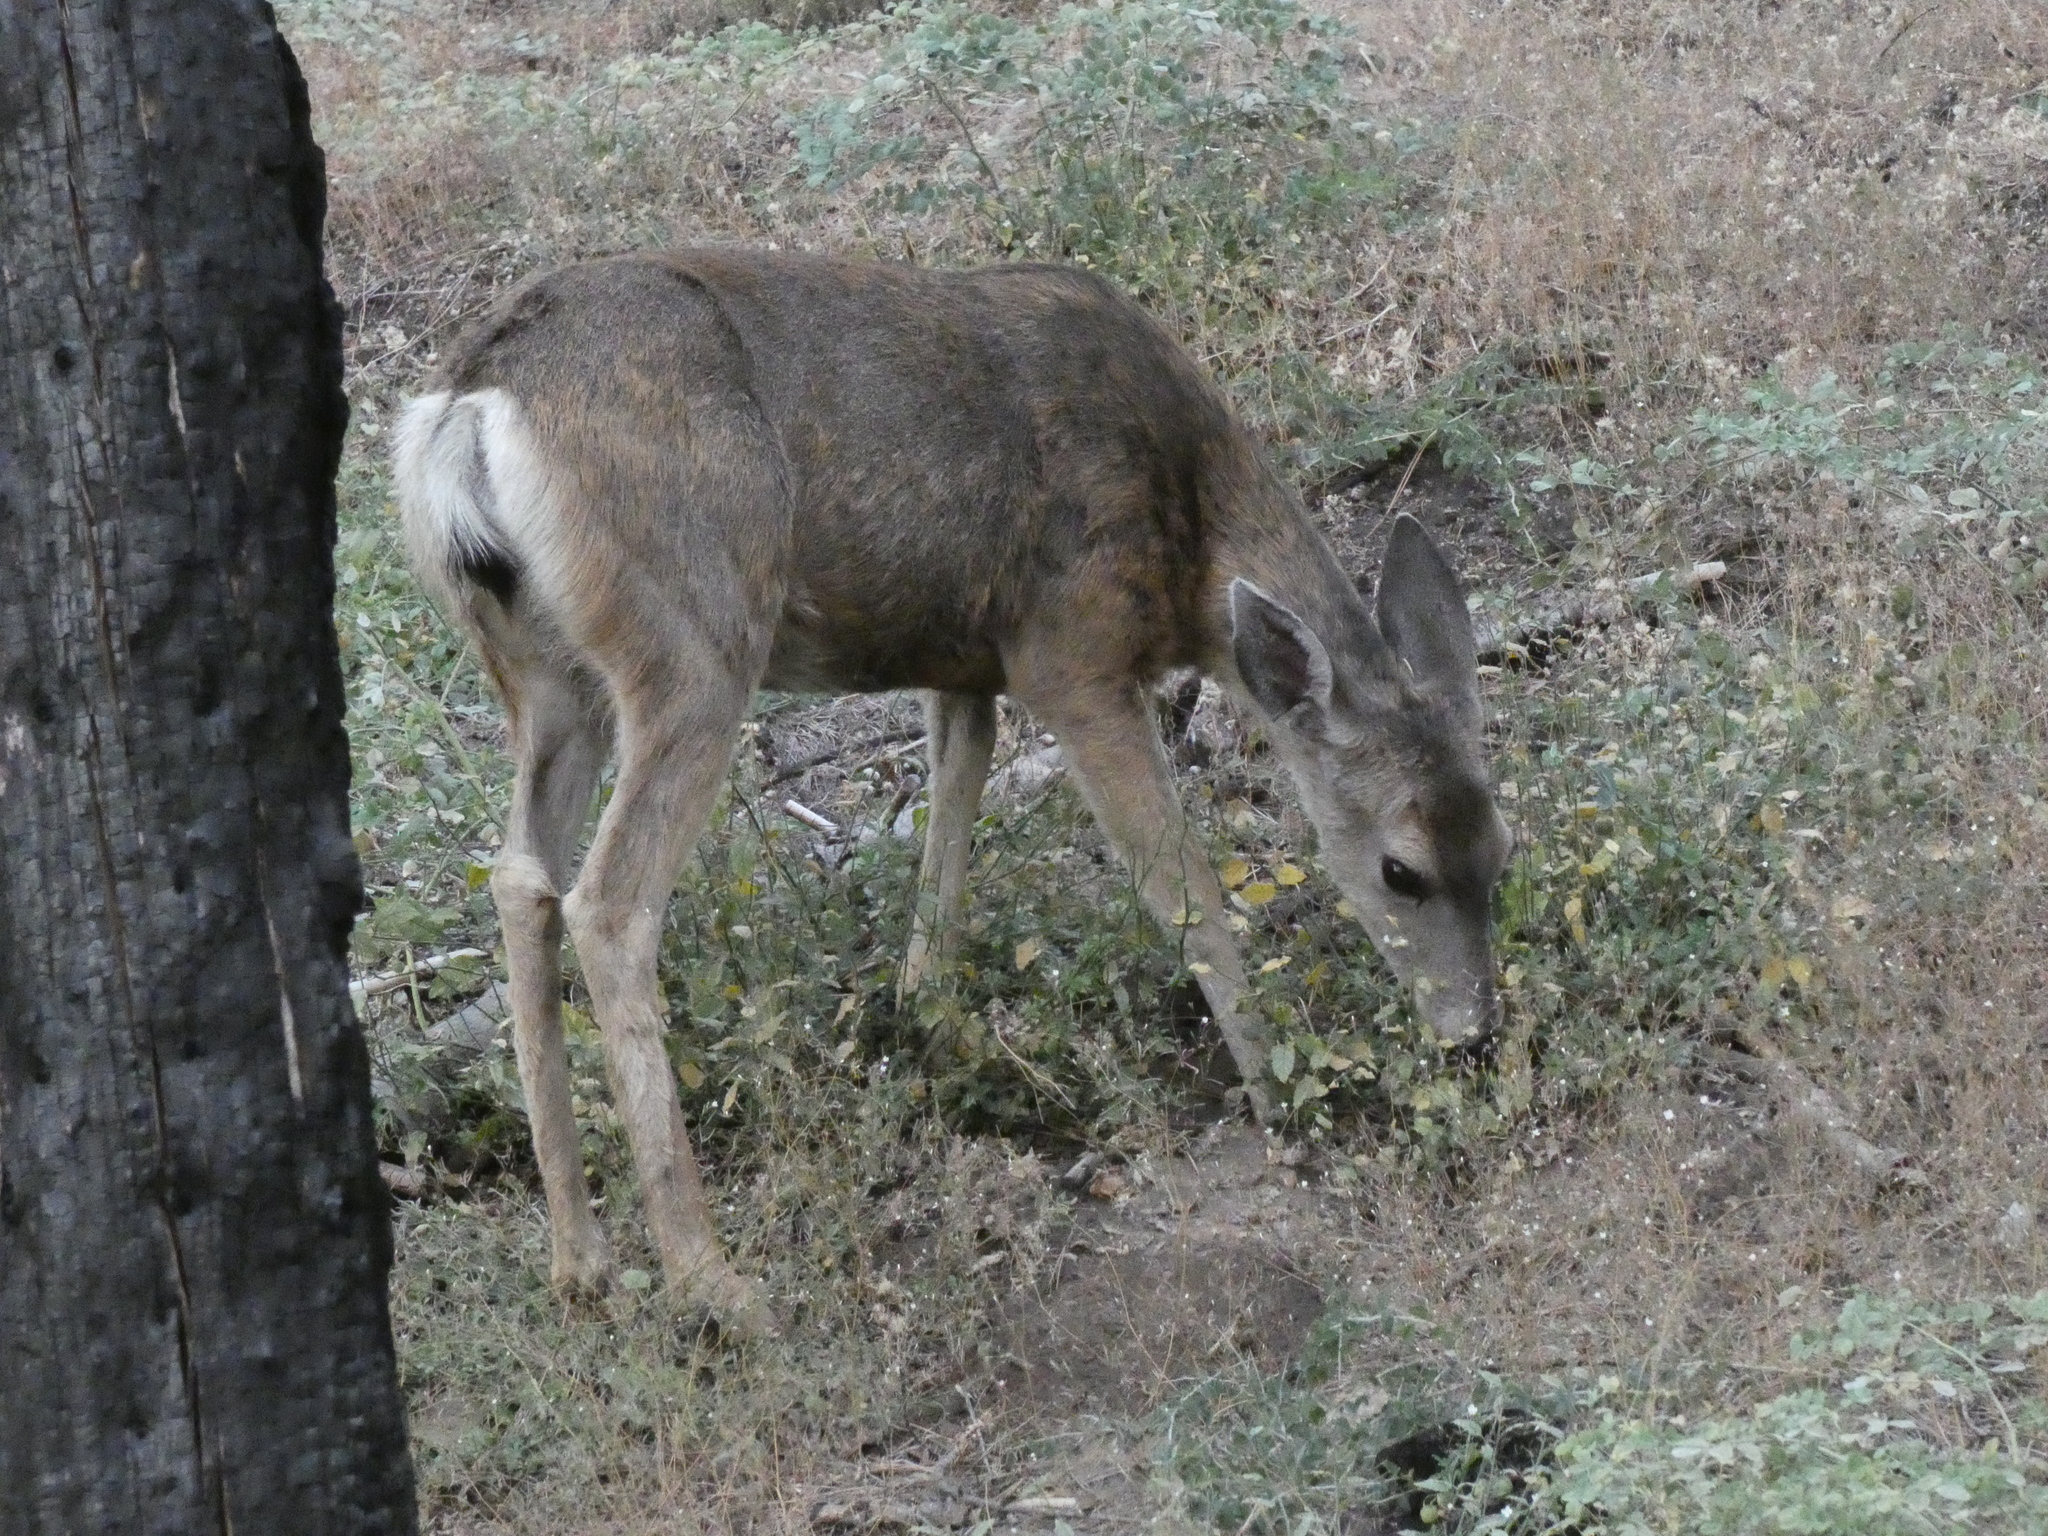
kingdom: Animalia
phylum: Chordata
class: Mammalia
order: Artiodactyla
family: Cervidae
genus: Odocoileus
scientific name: Odocoileus hemionus
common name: Mule deer
